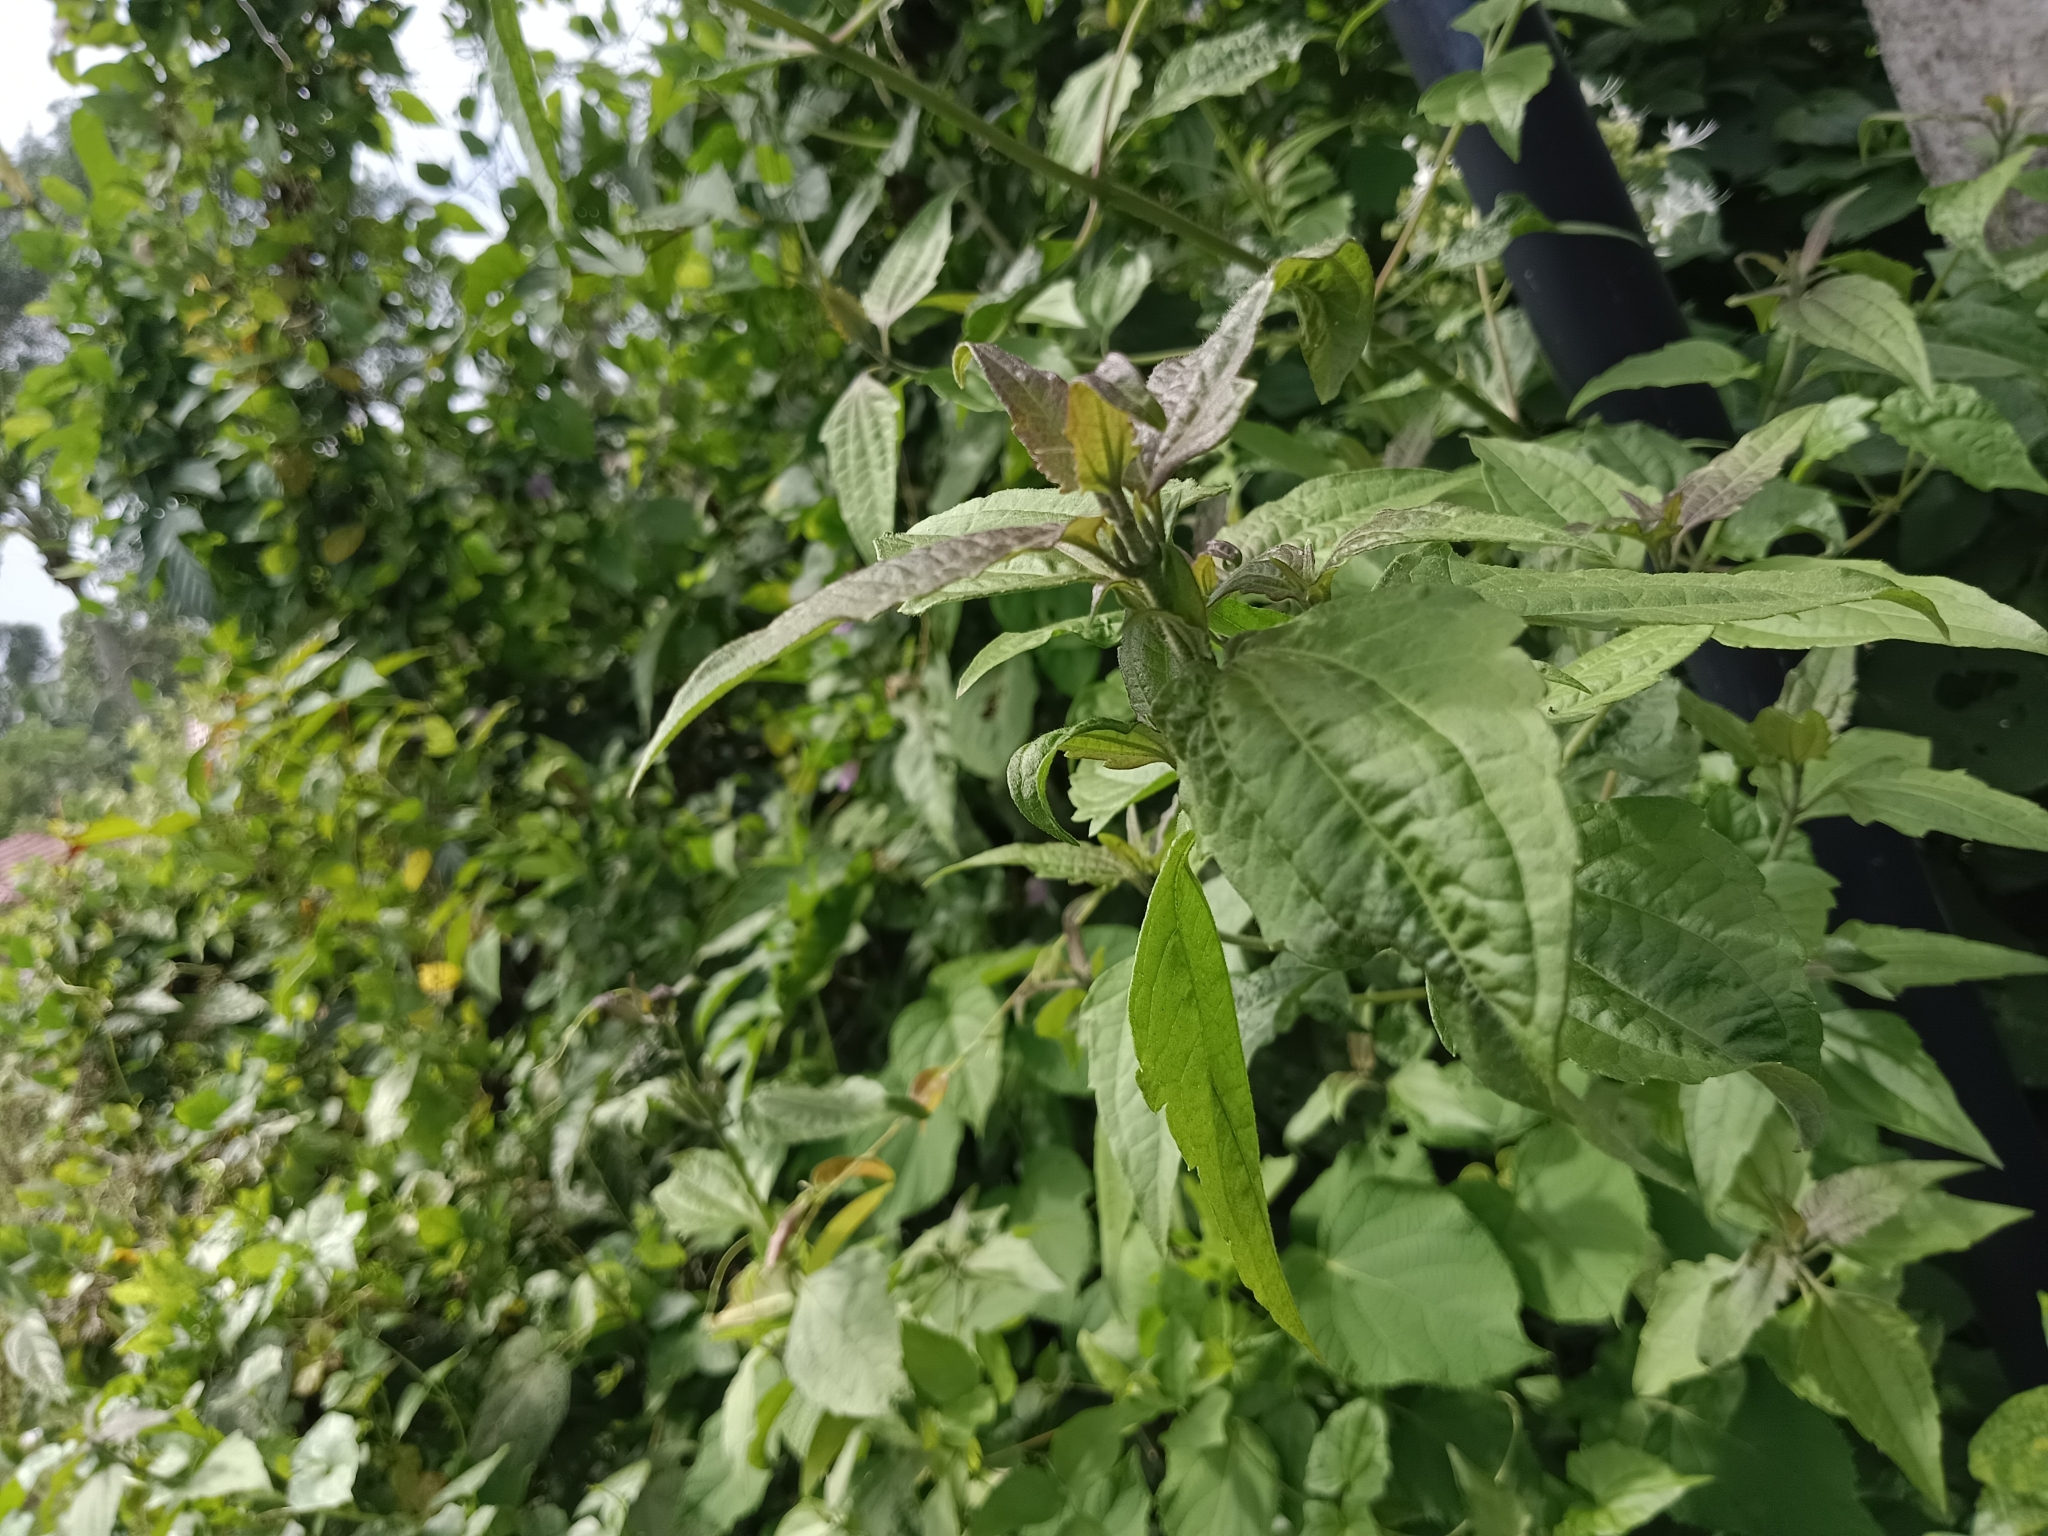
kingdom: Plantae
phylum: Tracheophyta
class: Magnoliopsida
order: Asterales
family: Asteraceae
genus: Chromolaena
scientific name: Chromolaena odorata
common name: Siamweed
